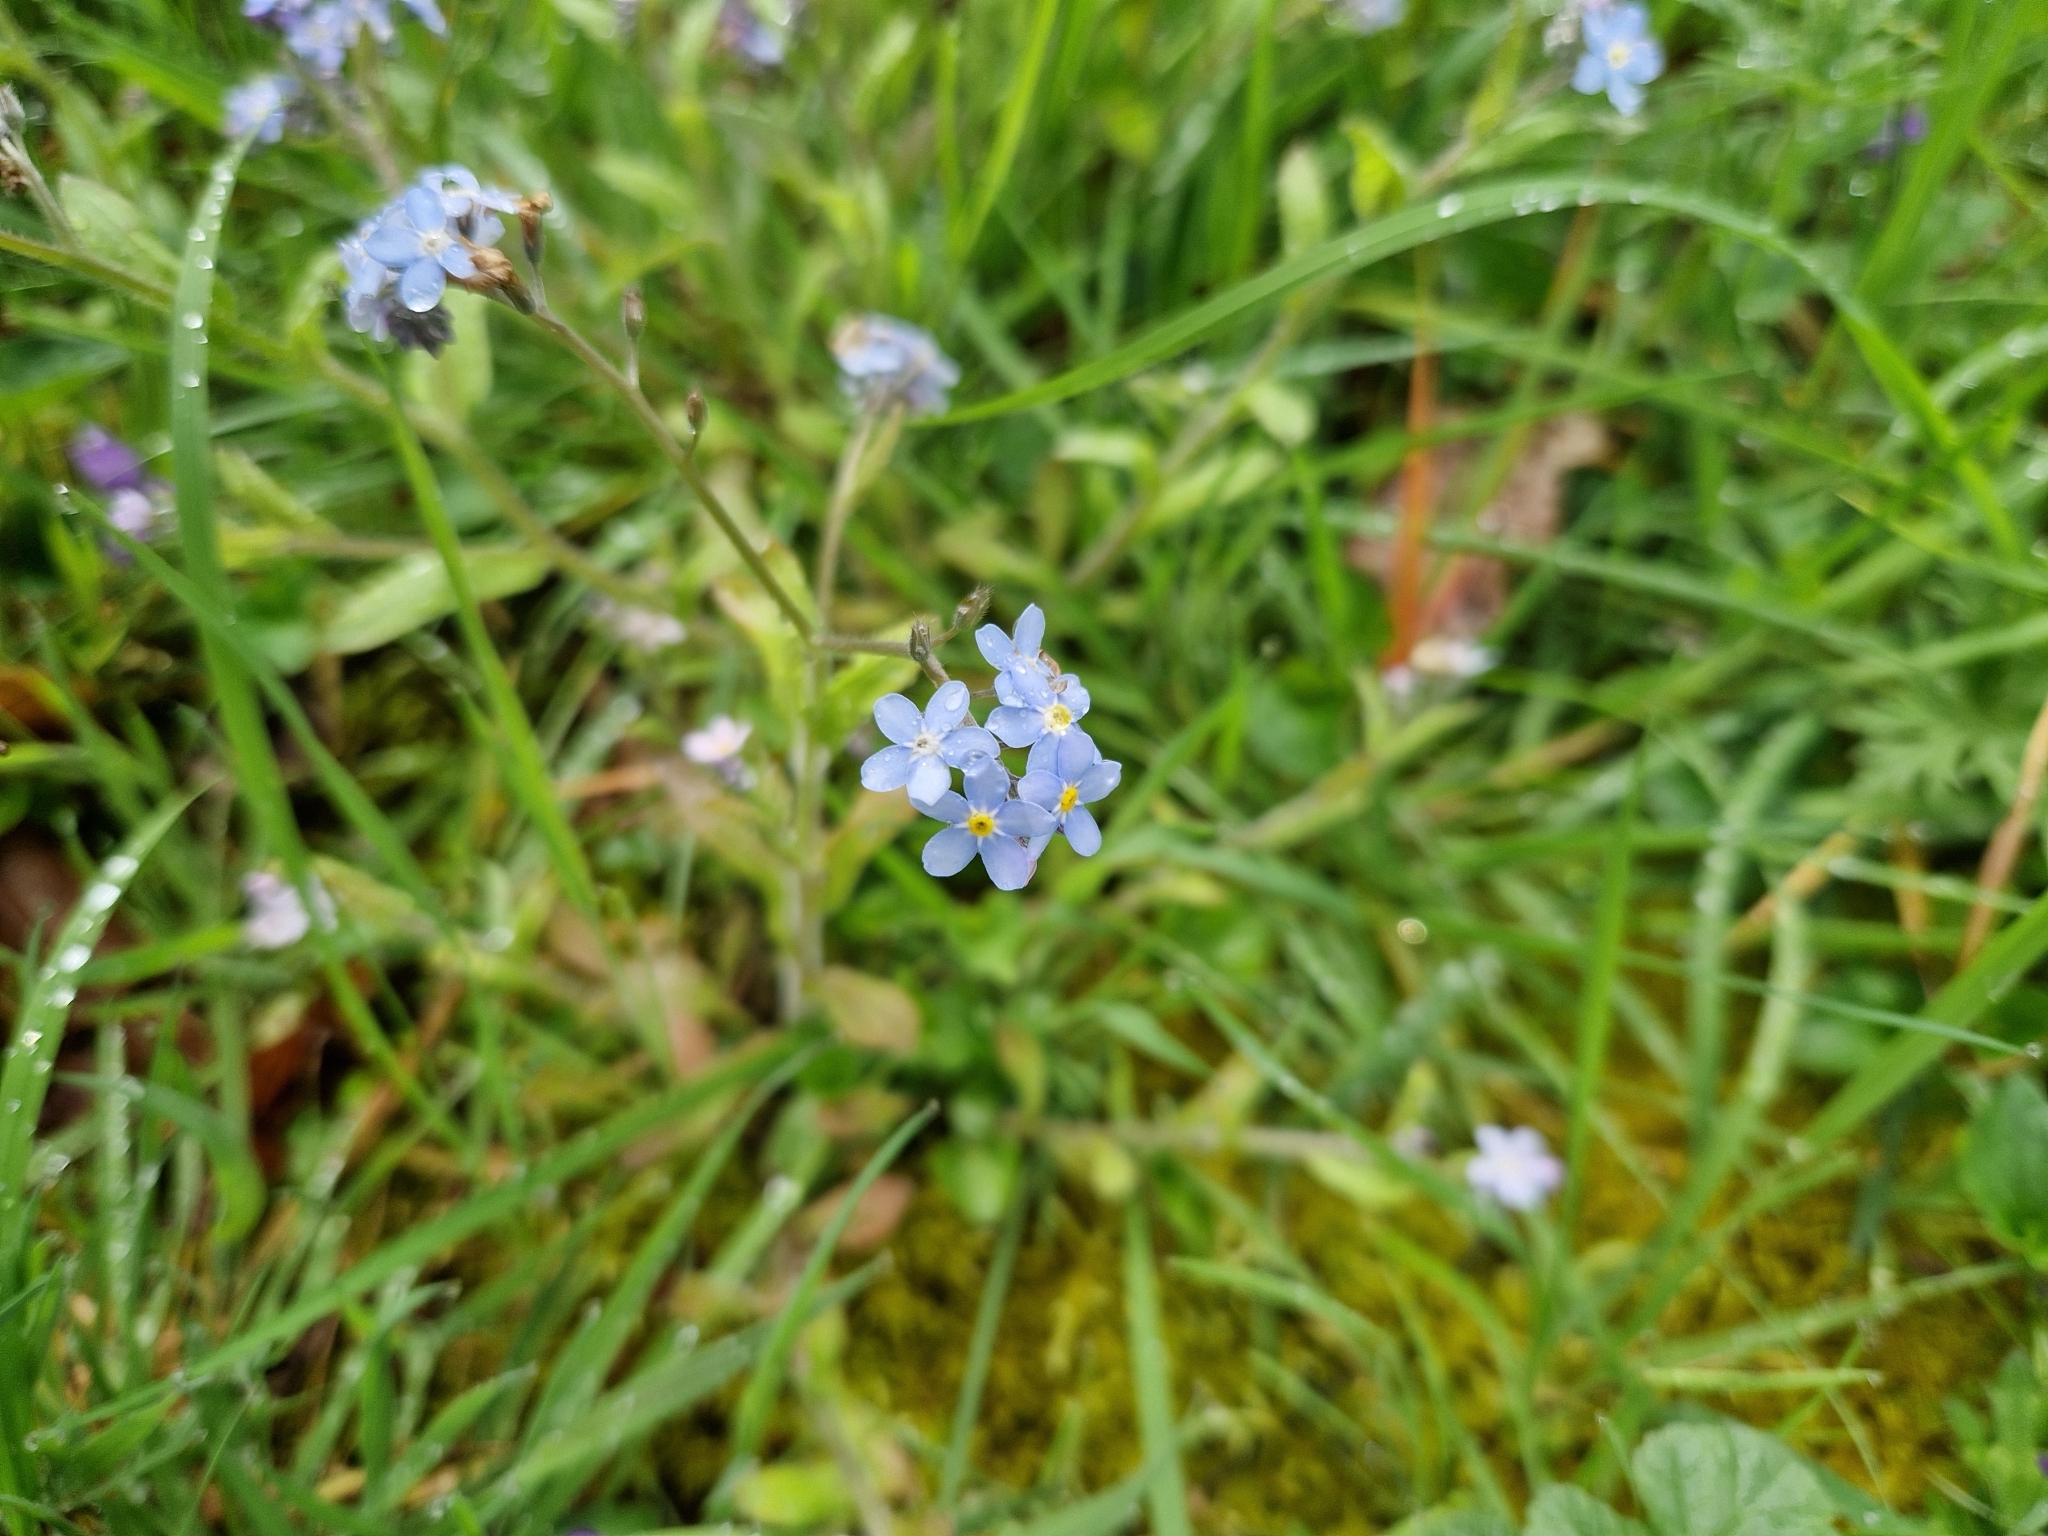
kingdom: Plantae
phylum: Tracheophyta
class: Magnoliopsida
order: Boraginales
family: Boraginaceae
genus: Myosotis
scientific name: Myosotis sylvatica
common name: Wood forget-me-not
